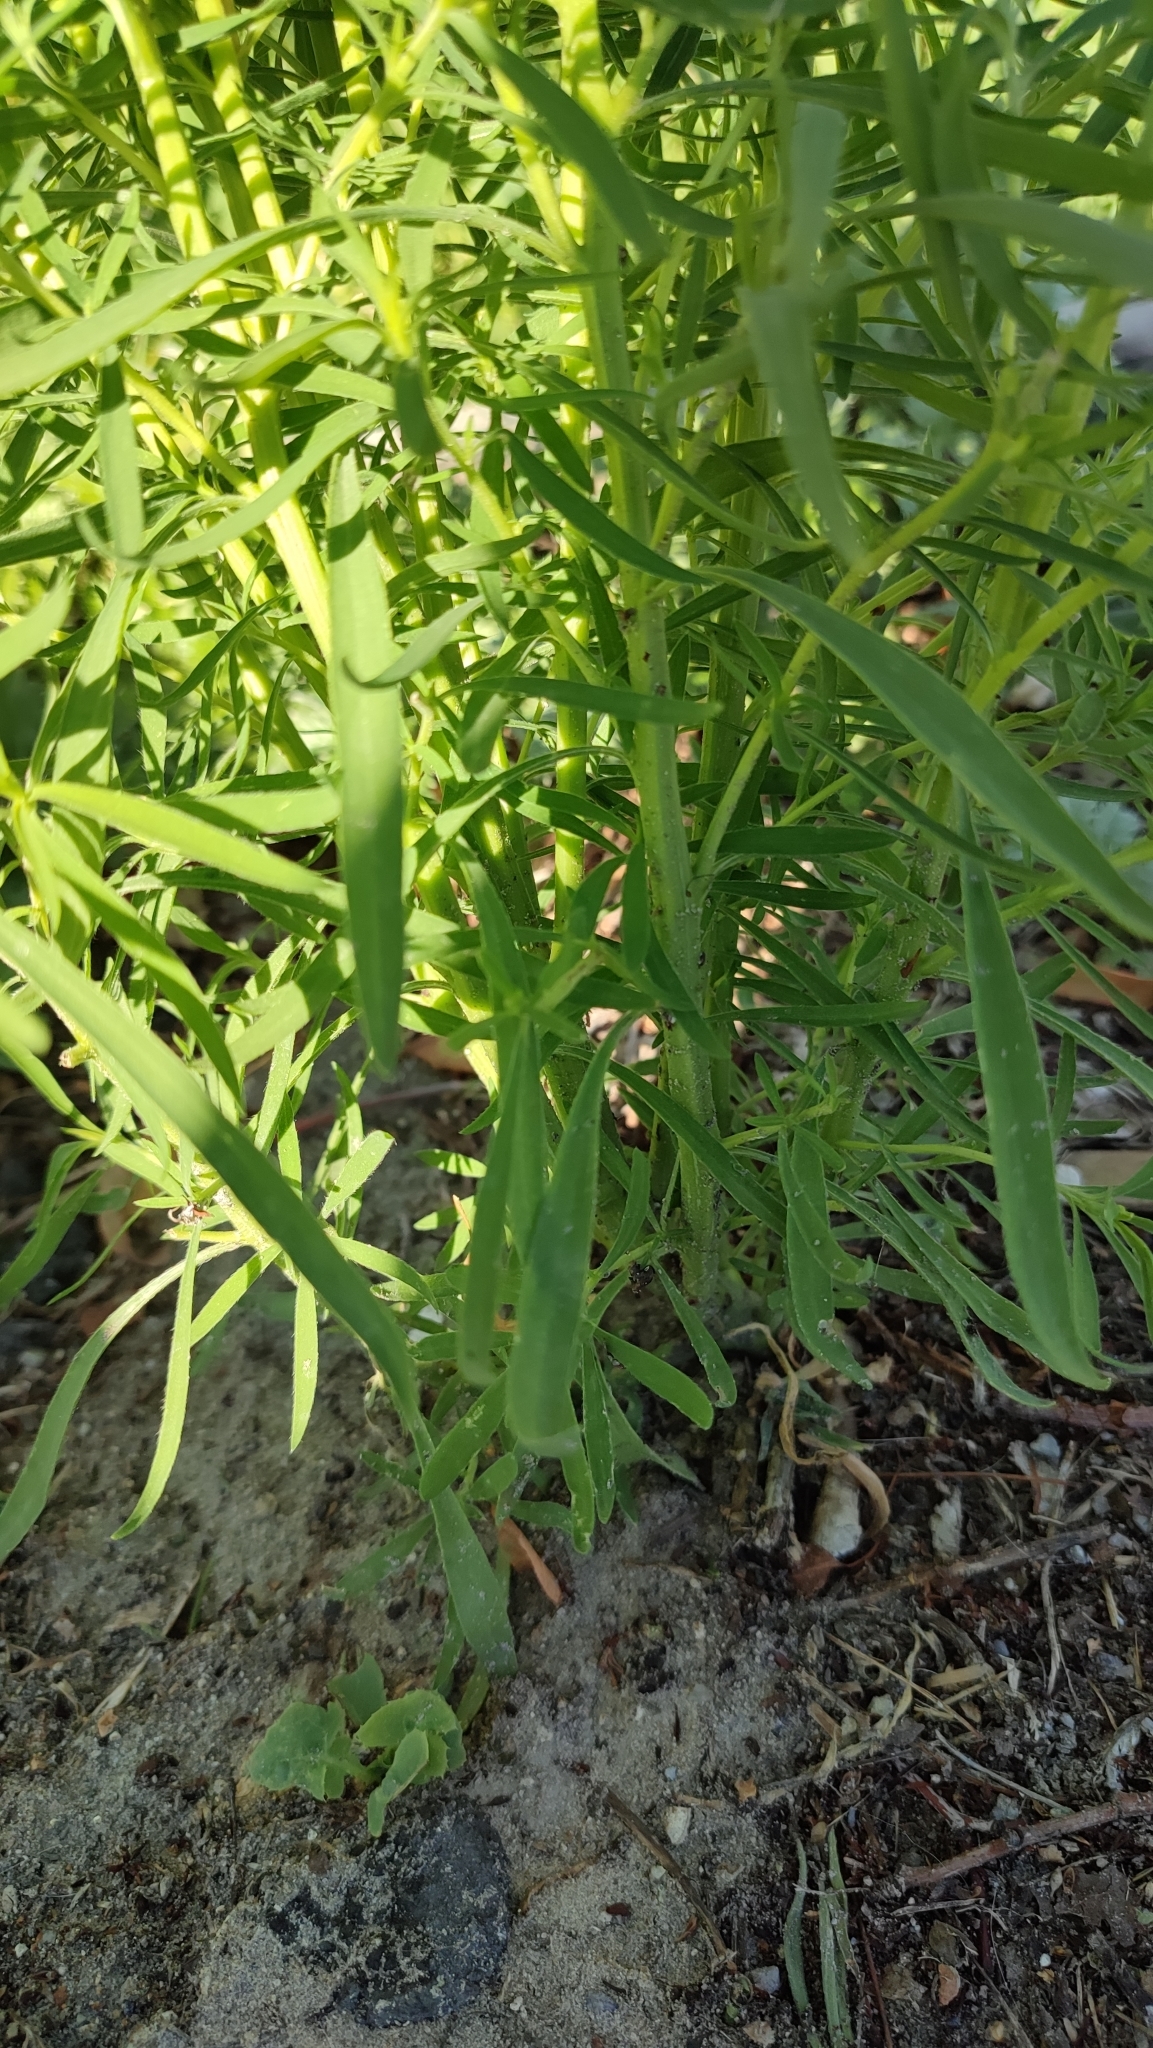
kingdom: Plantae
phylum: Tracheophyta
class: Magnoliopsida
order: Caryophyllales
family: Amaranthaceae
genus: Bassia
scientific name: Bassia scoparia
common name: Belvedere
